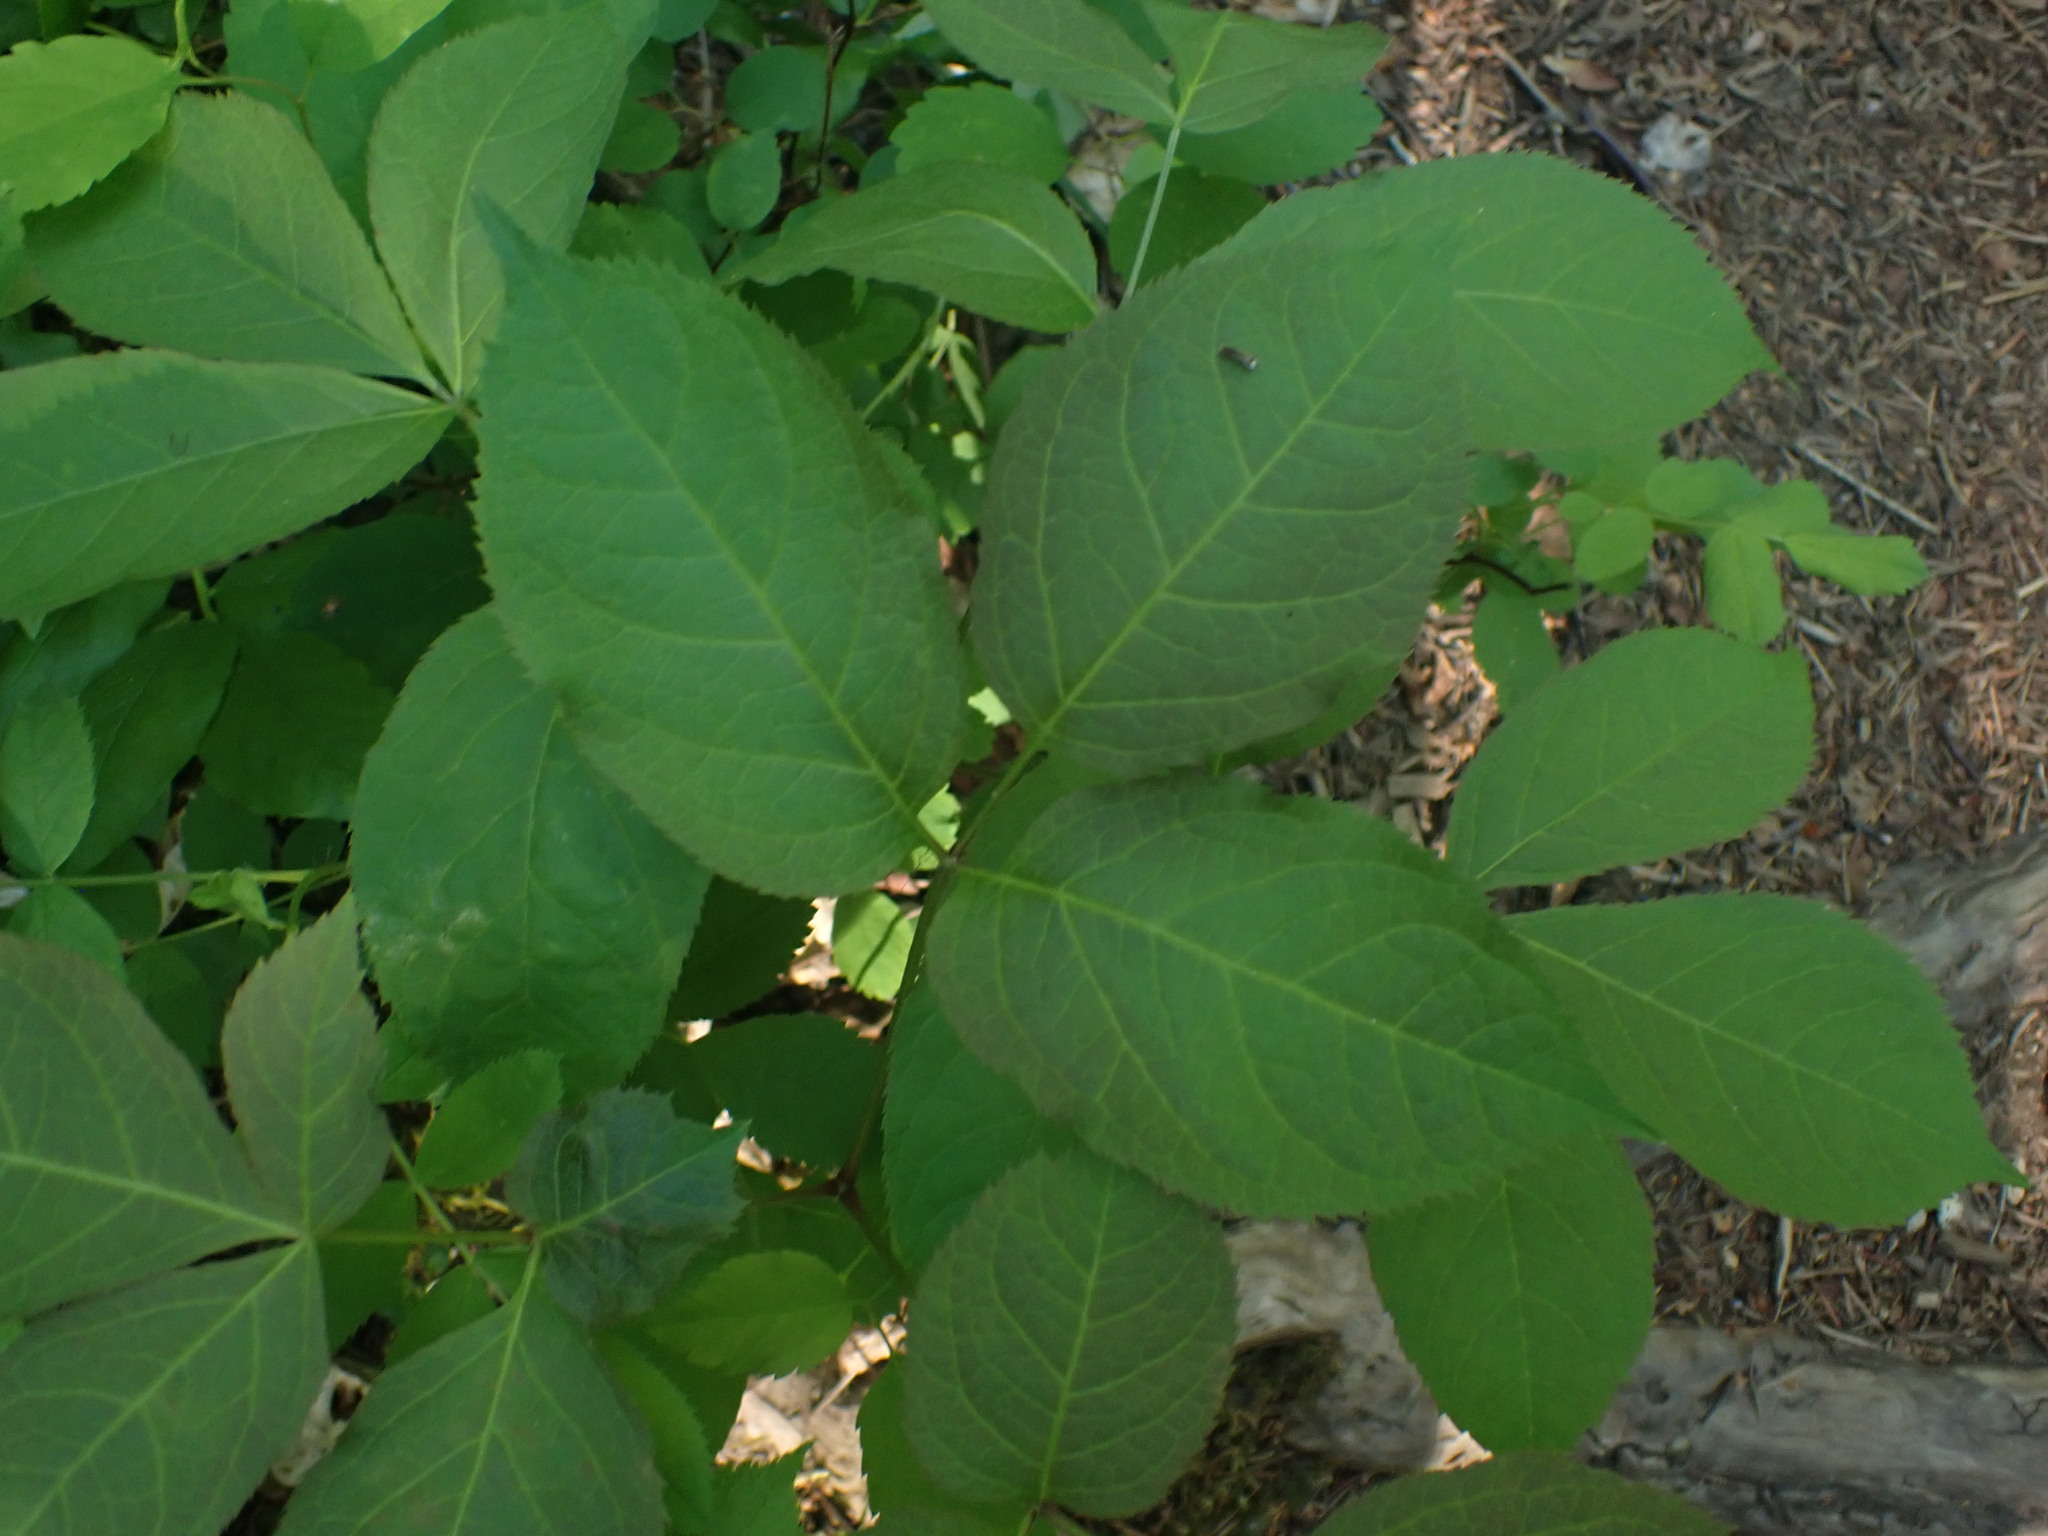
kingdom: Plantae
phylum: Tracheophyta
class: Magnoliopsida
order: Apiales
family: Araliaceae
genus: Aralia
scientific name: Aralia nudicaulis
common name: Wild sarsaparilla
